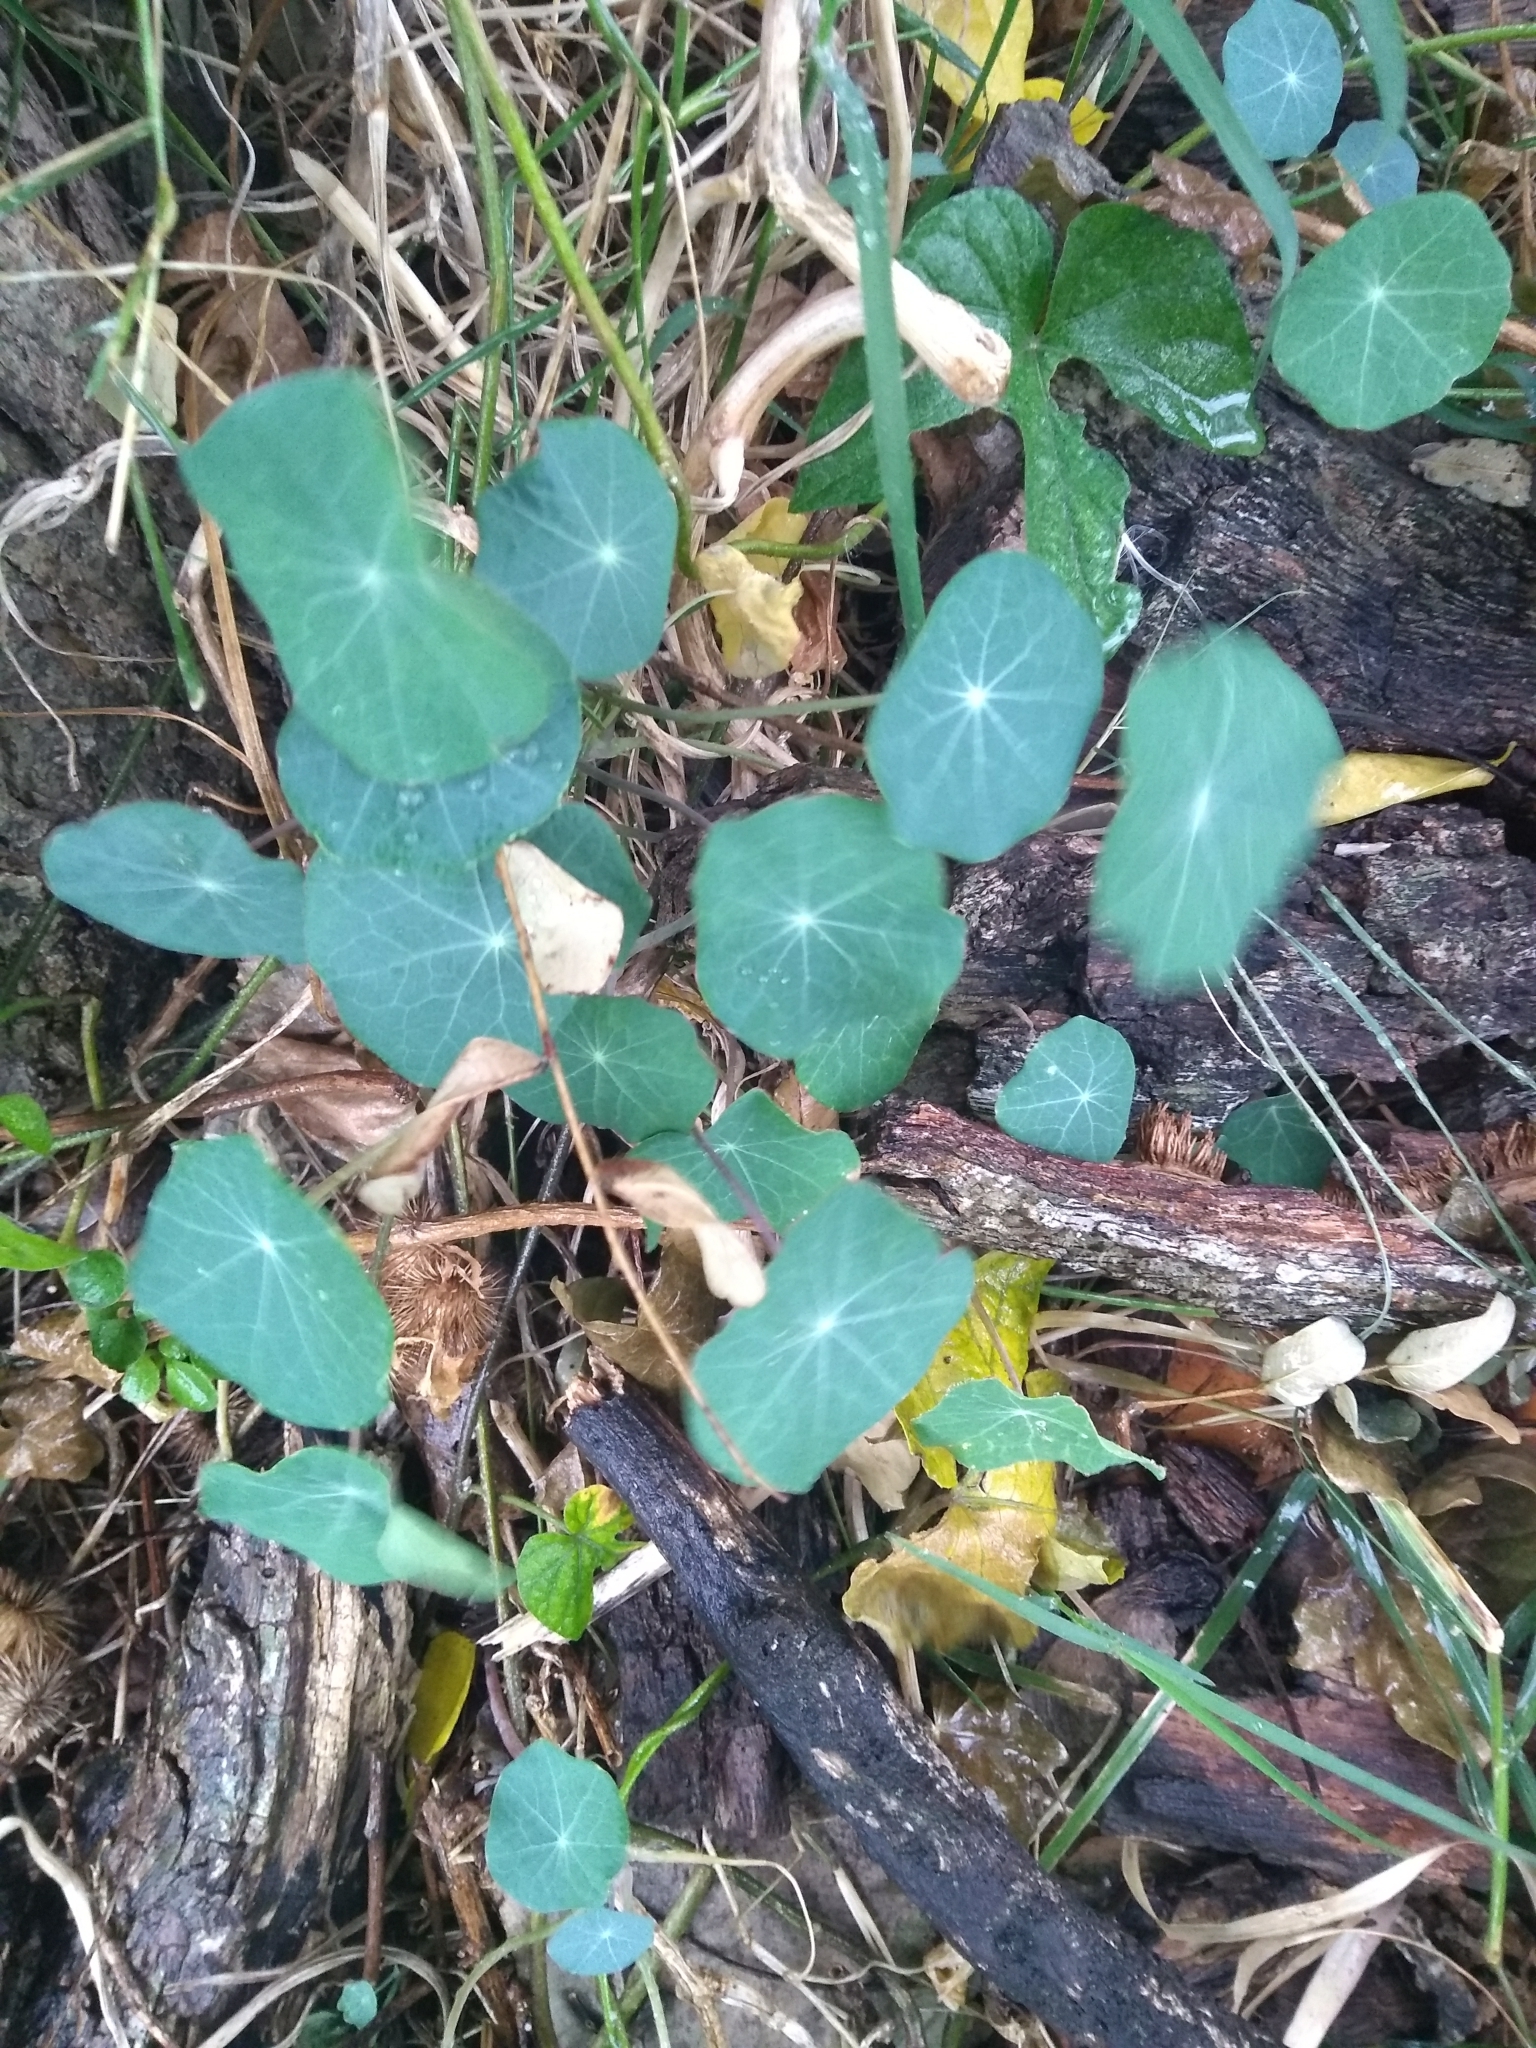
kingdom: Plantae
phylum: Tracheophyta
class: Magnoliopsida
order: Brassicales
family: Tropaeolaceae
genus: Tropaeolum
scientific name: Tropaeolum majus
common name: Nasturtium
